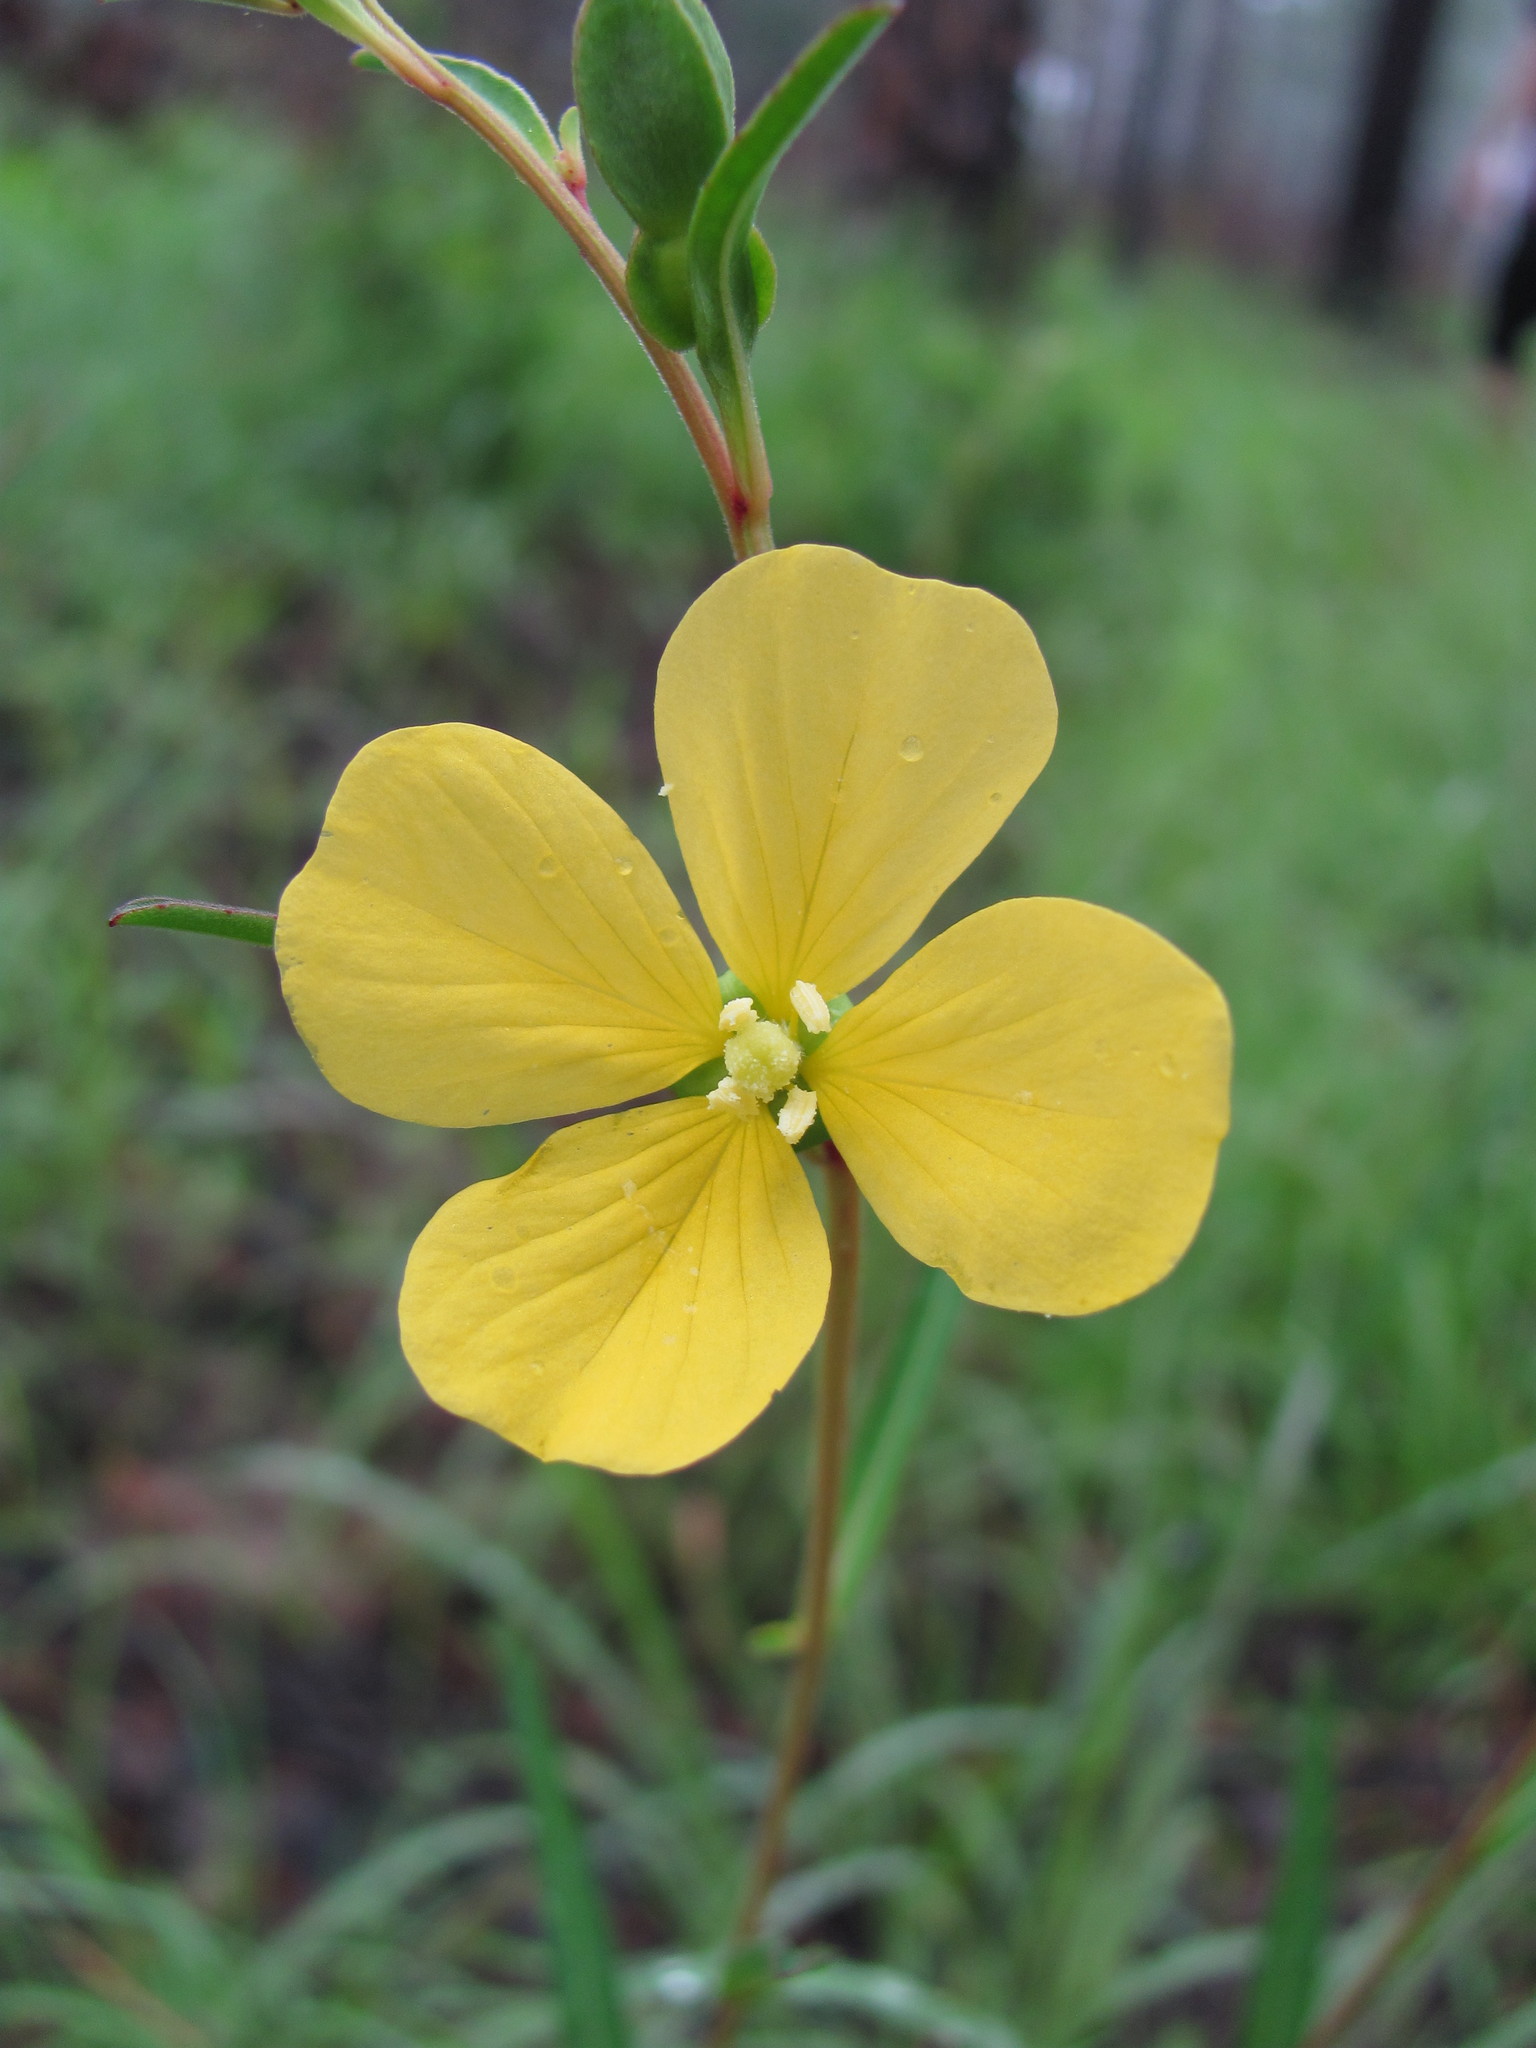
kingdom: Plantae
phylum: Tracheophyta
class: Magnoliopsida
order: Myrtales
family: Onagraceae
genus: Ludwigia
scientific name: Ludwigia maritima
